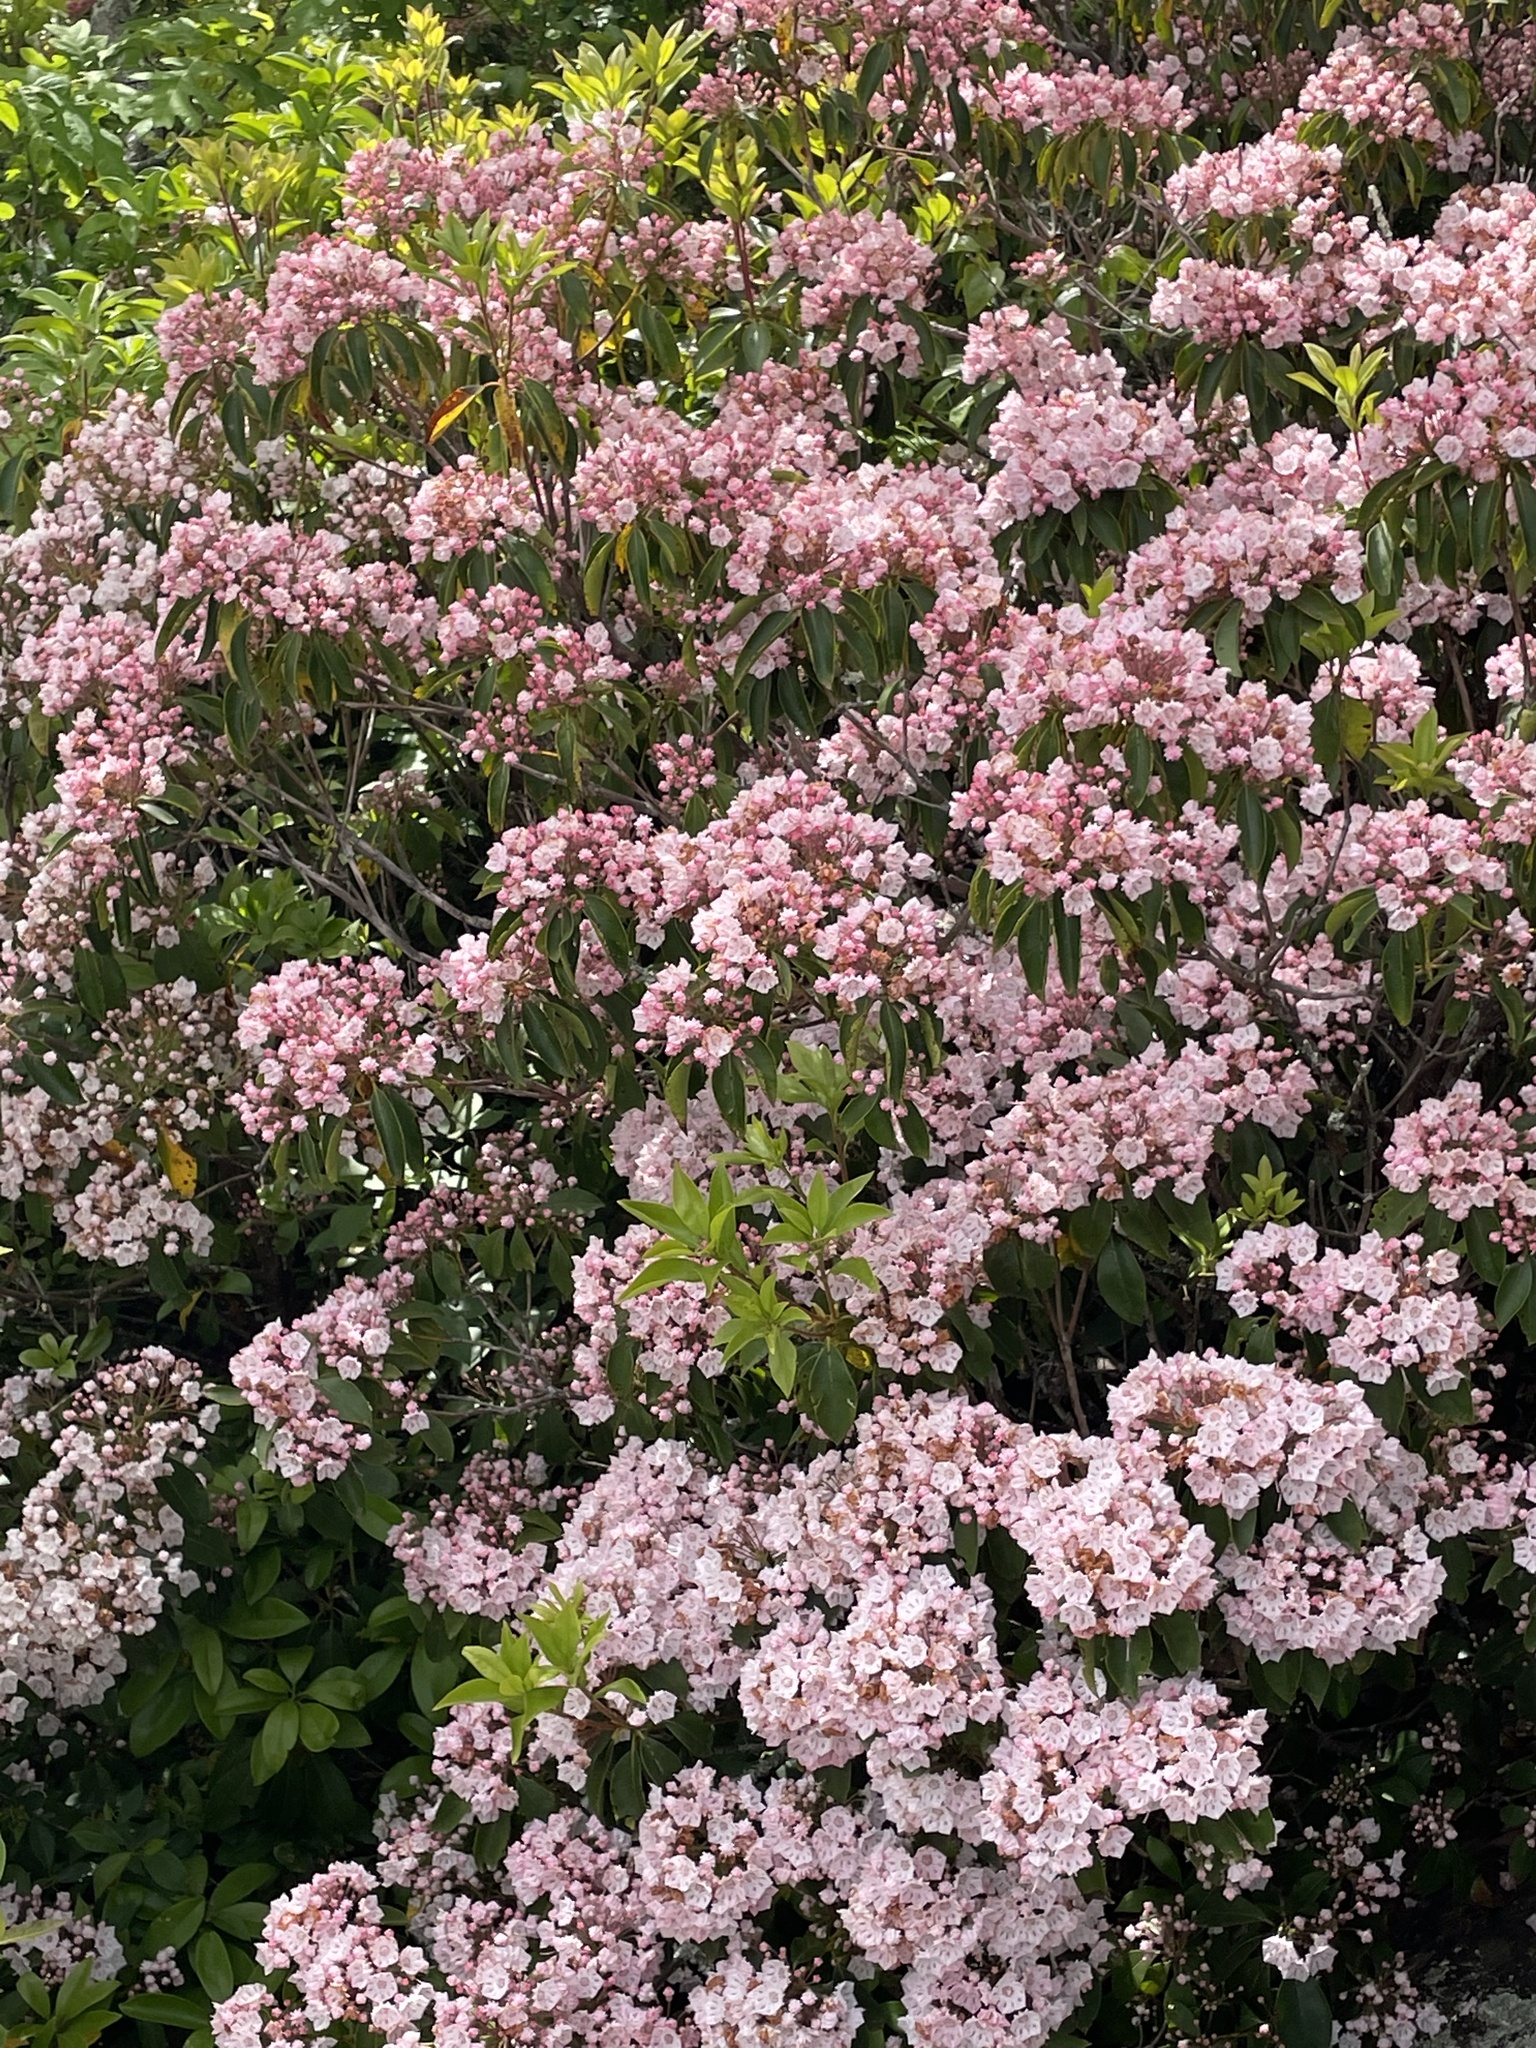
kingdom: Plantae
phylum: Tracheophyta
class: Magnoliopsida
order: Ericales
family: Ericaceae
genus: Kalmia
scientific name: Kalmia latifolia
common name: Mountain-laurel
